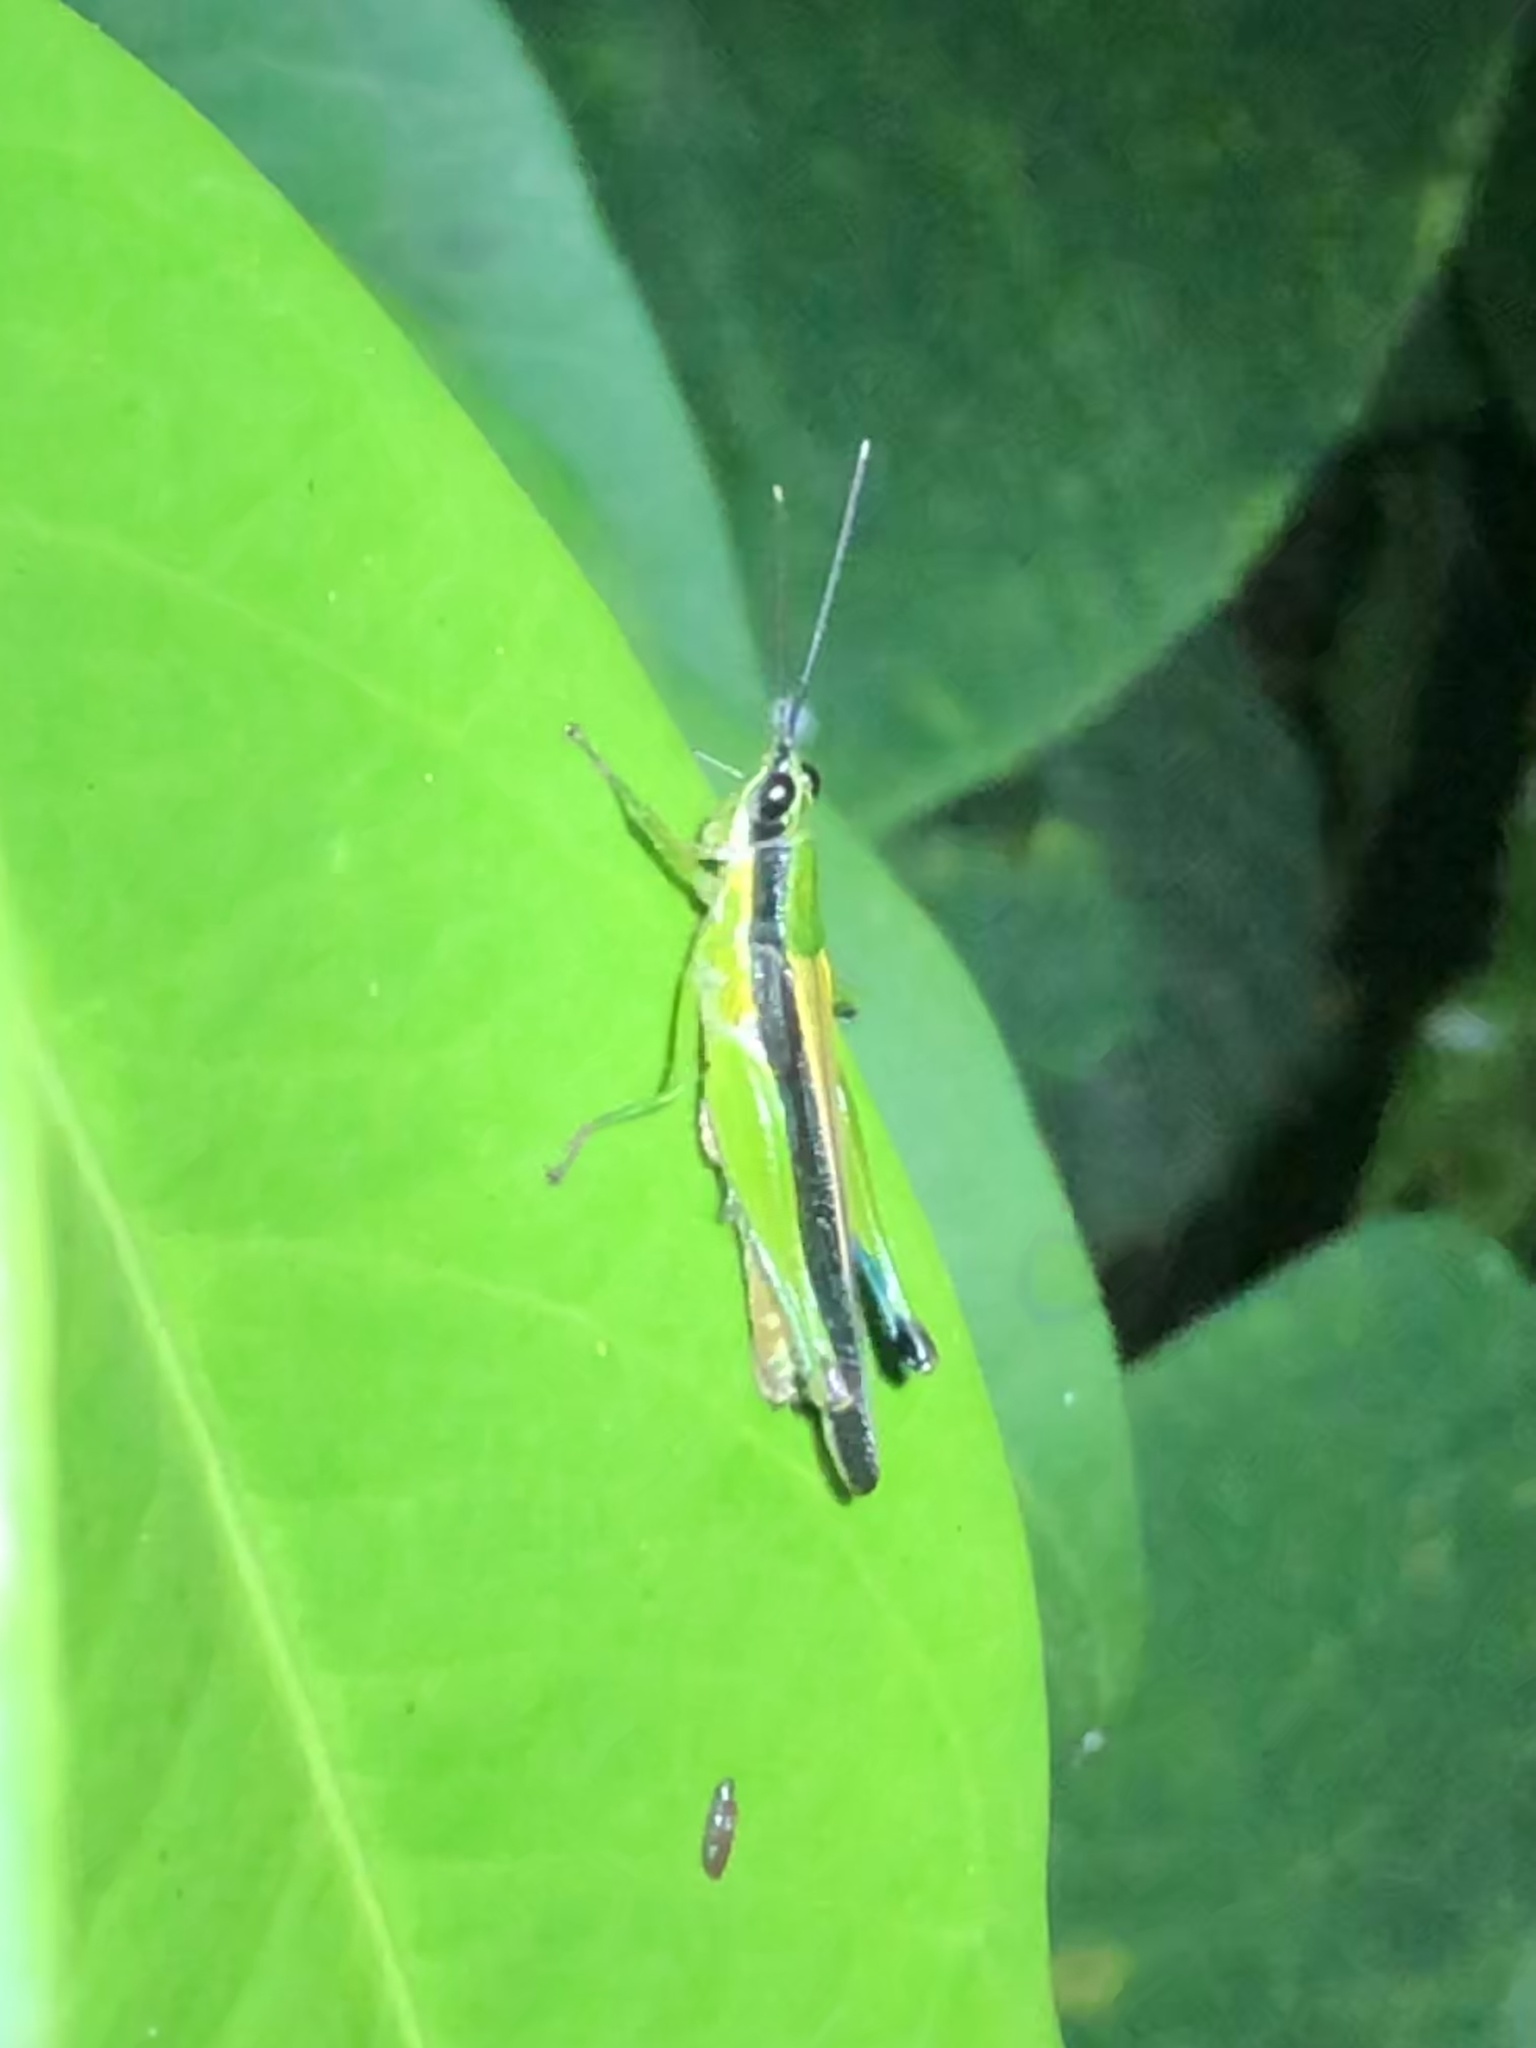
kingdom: Animalia
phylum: Arthropoda
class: Insecta
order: Orthoptera
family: Acrididae
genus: Stenopola
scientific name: Stenopola boliviana
